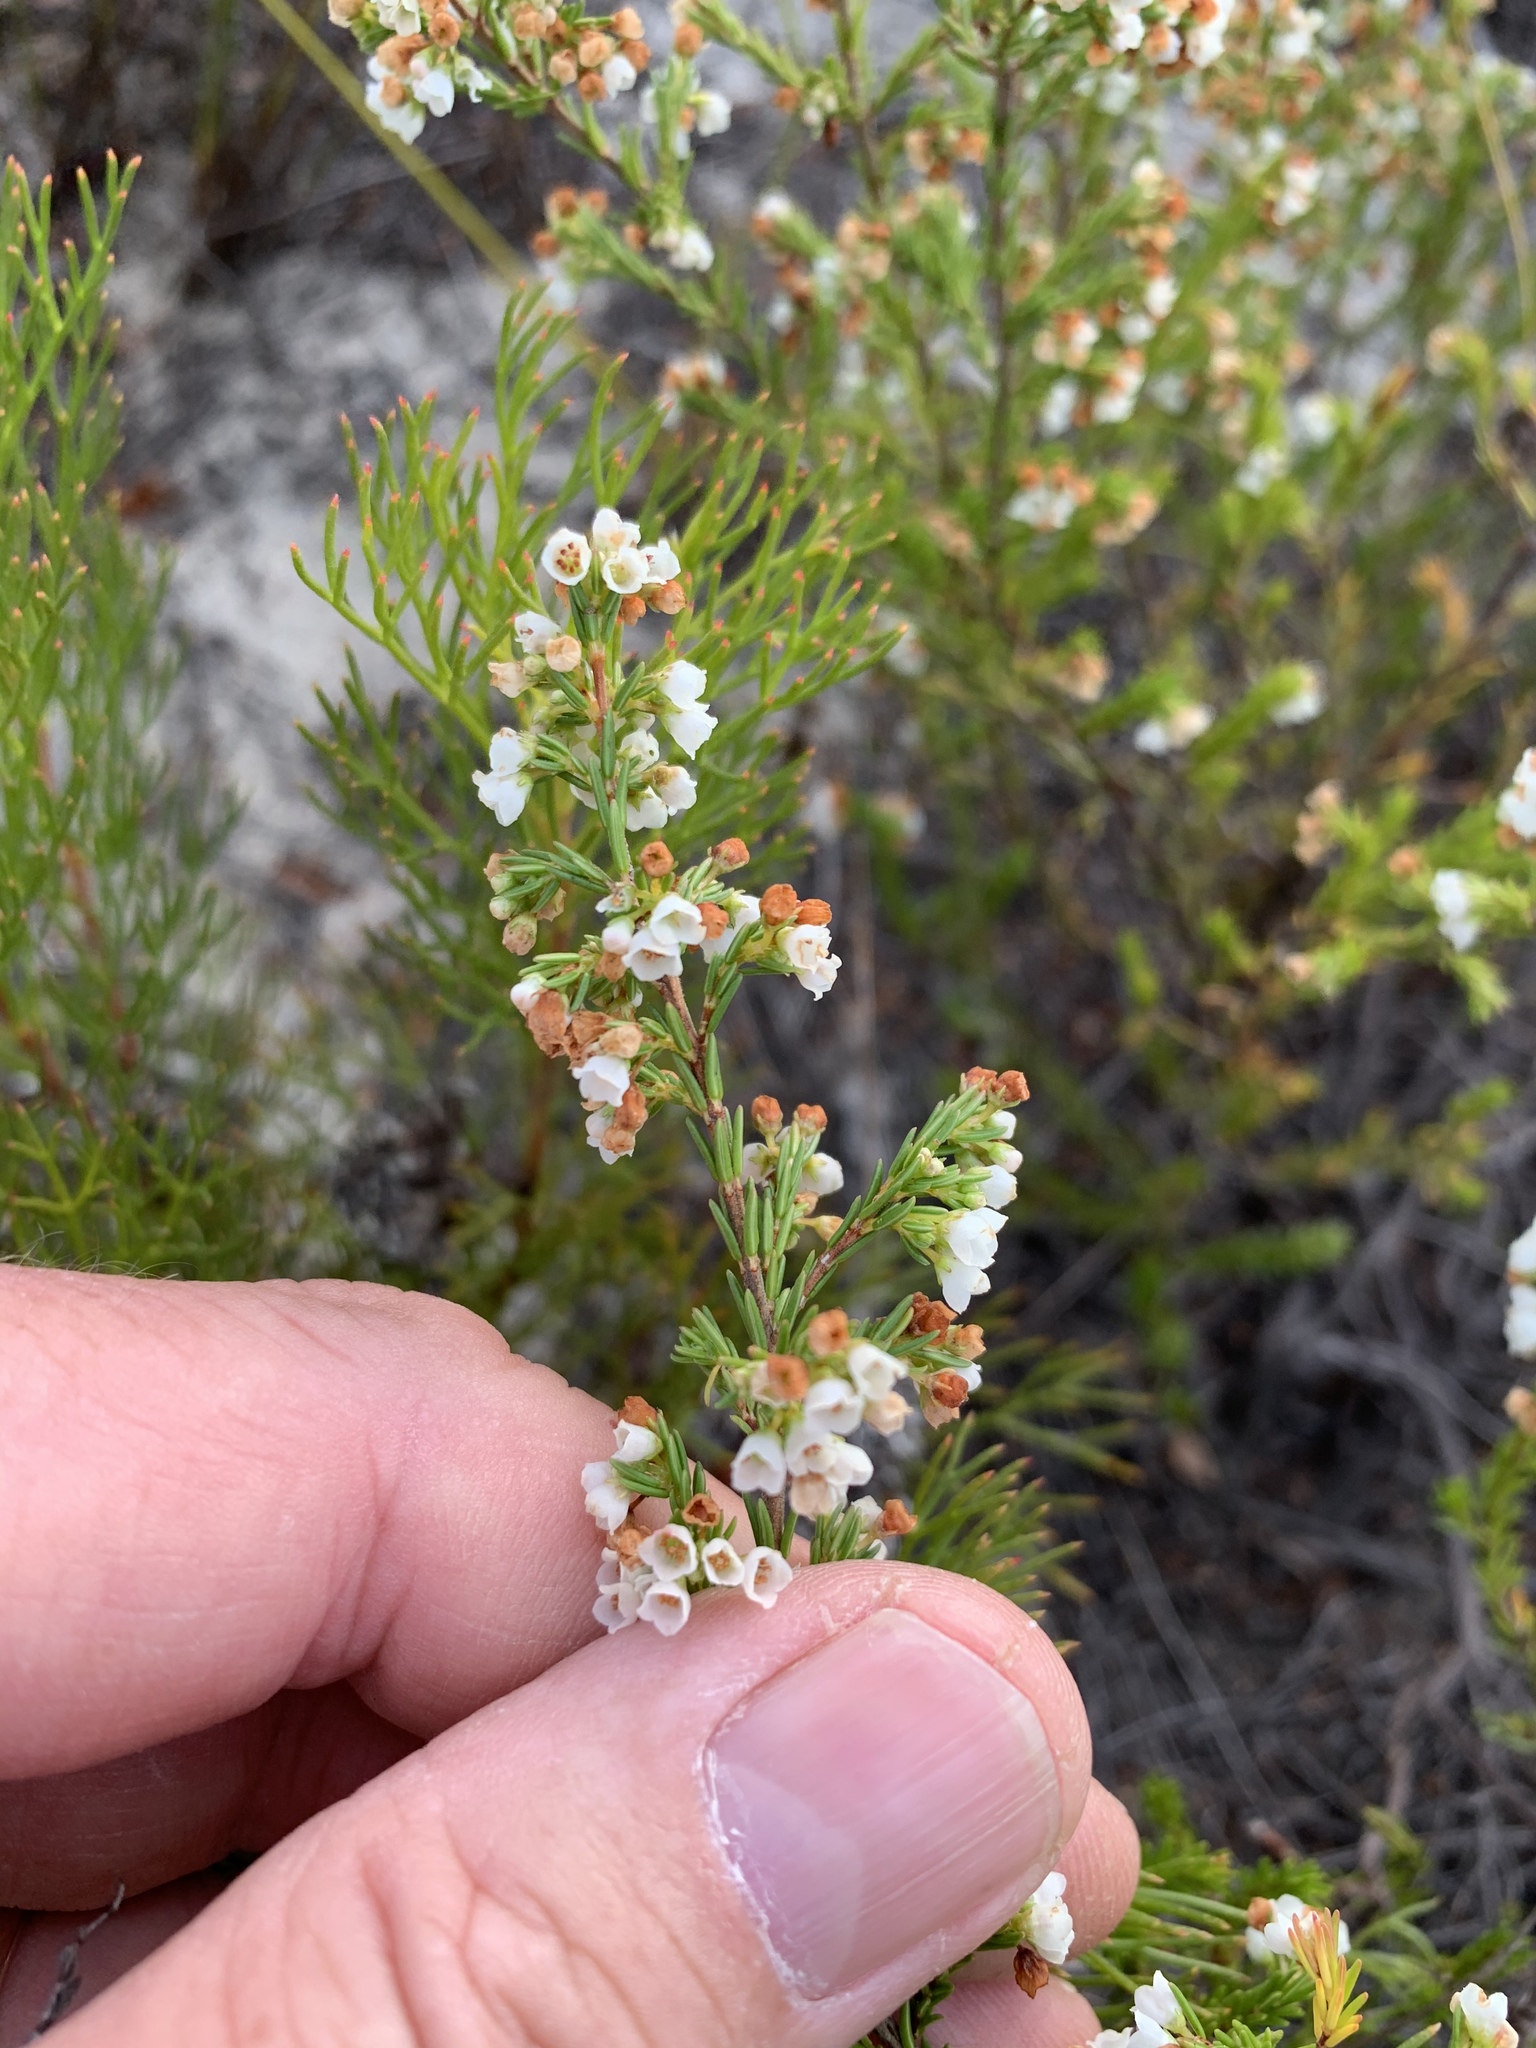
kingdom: Plantae
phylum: Tracheophyta
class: Magnoliopsida
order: Ericales
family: Ericaceae
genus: Erica
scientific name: Erica subdivaricata
